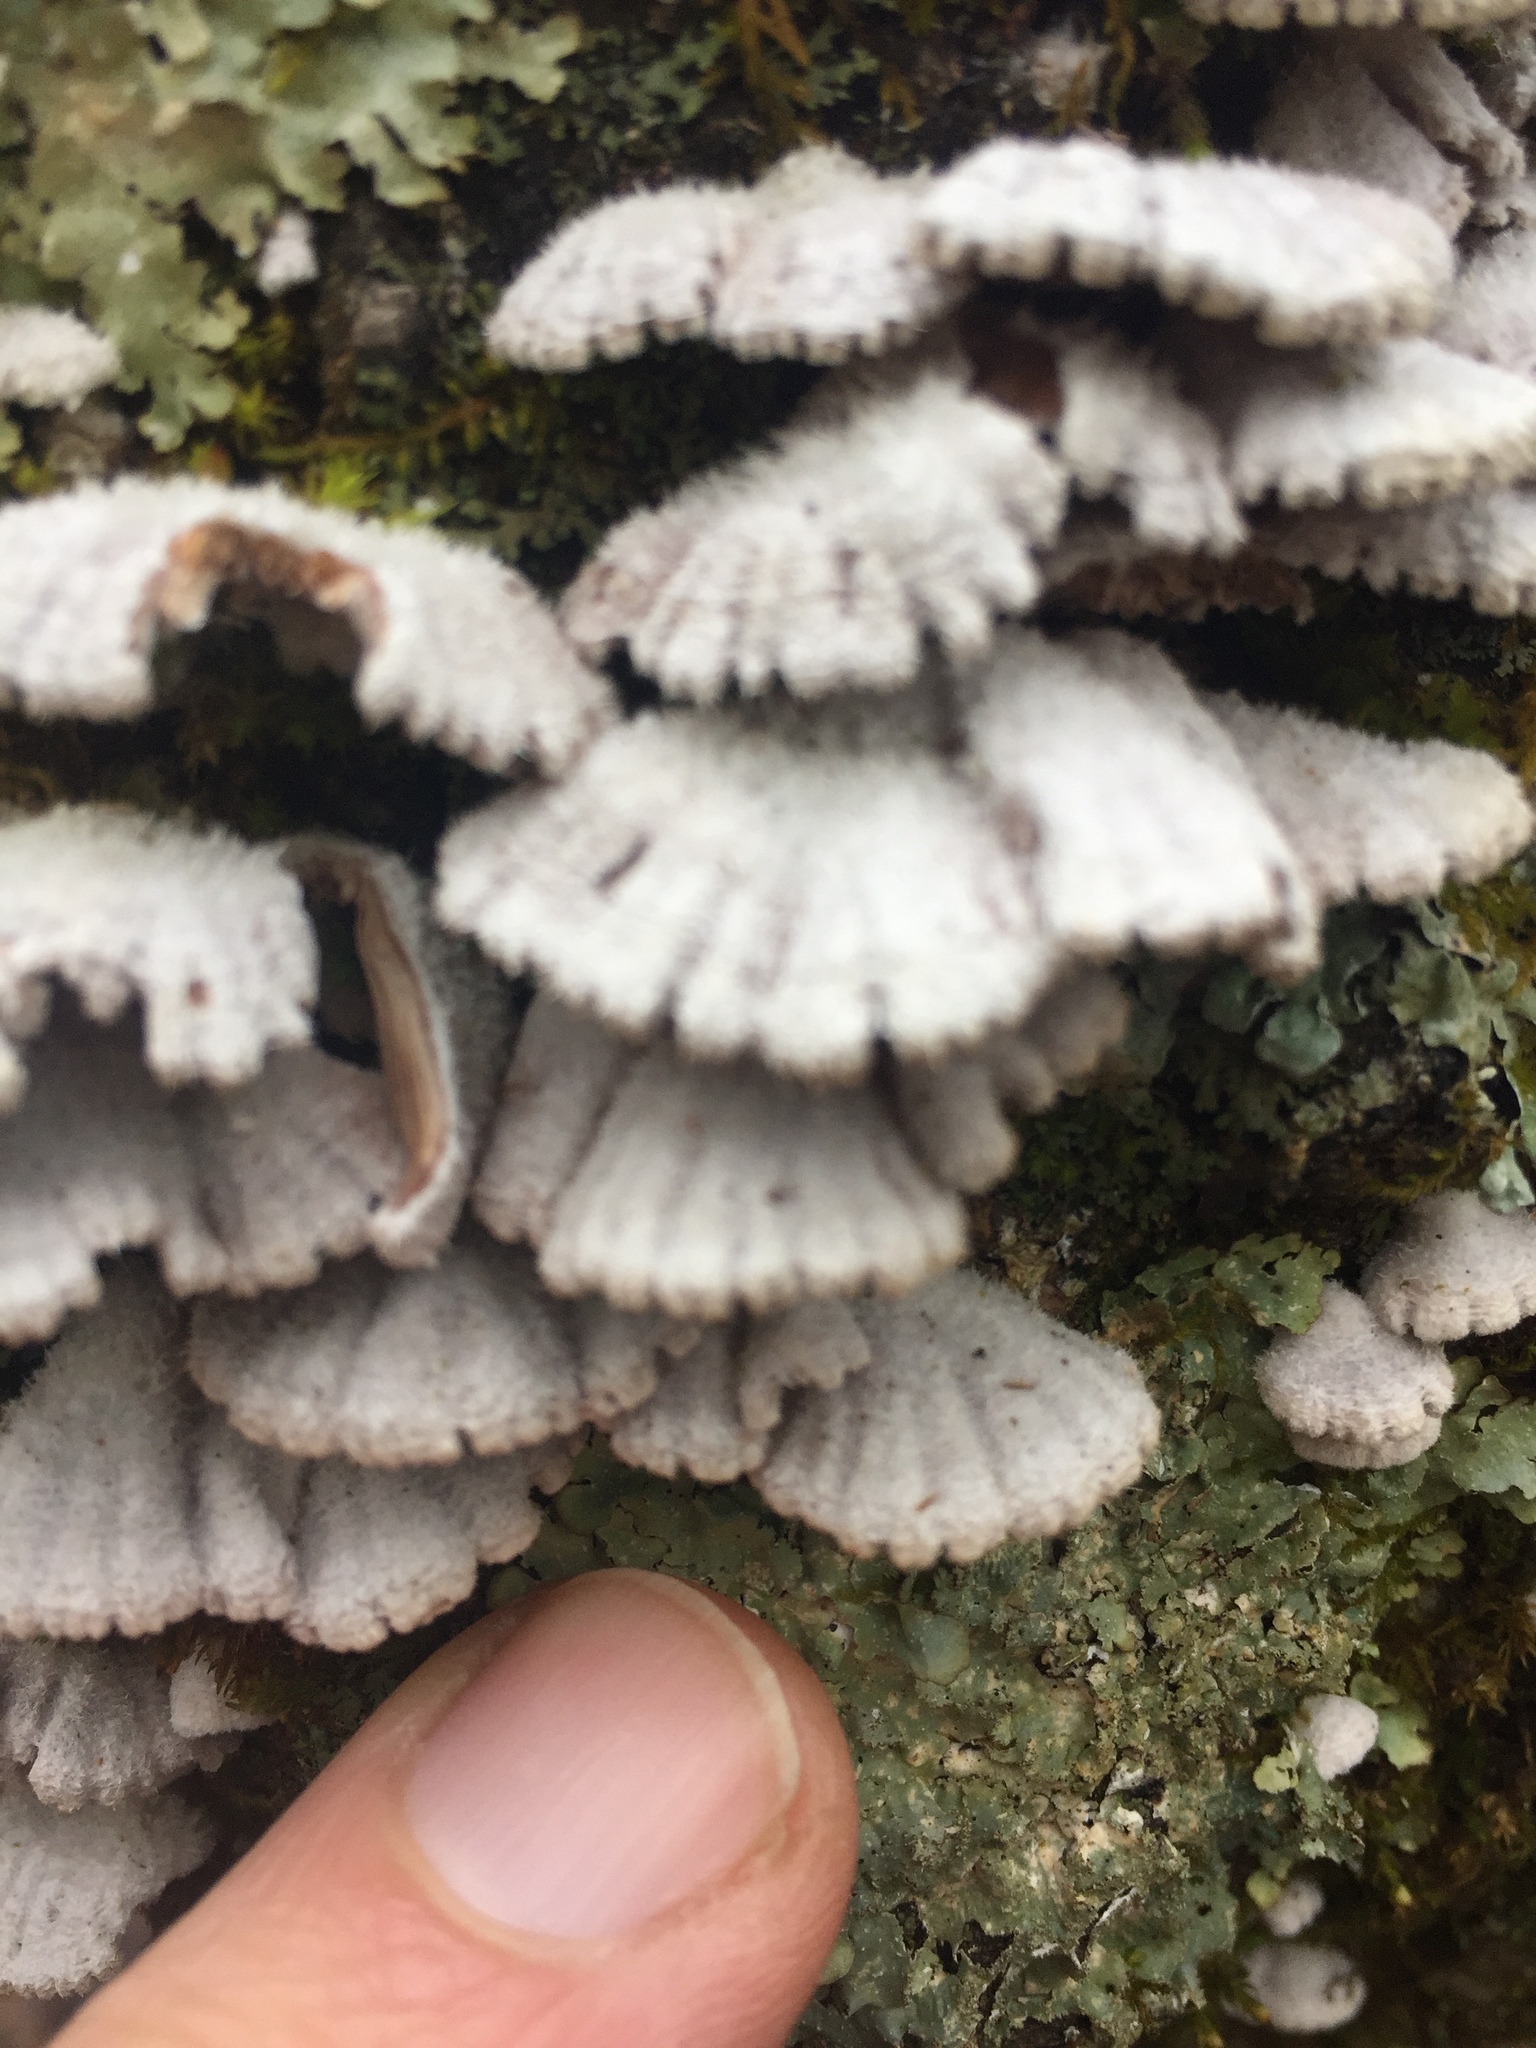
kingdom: Fungi
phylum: Basidiomycota
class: Agaricomycetes
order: Agaricales
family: Schizophyllaceae
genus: Schizophyllum
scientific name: Schizophyllum commune
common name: Common porecrust
